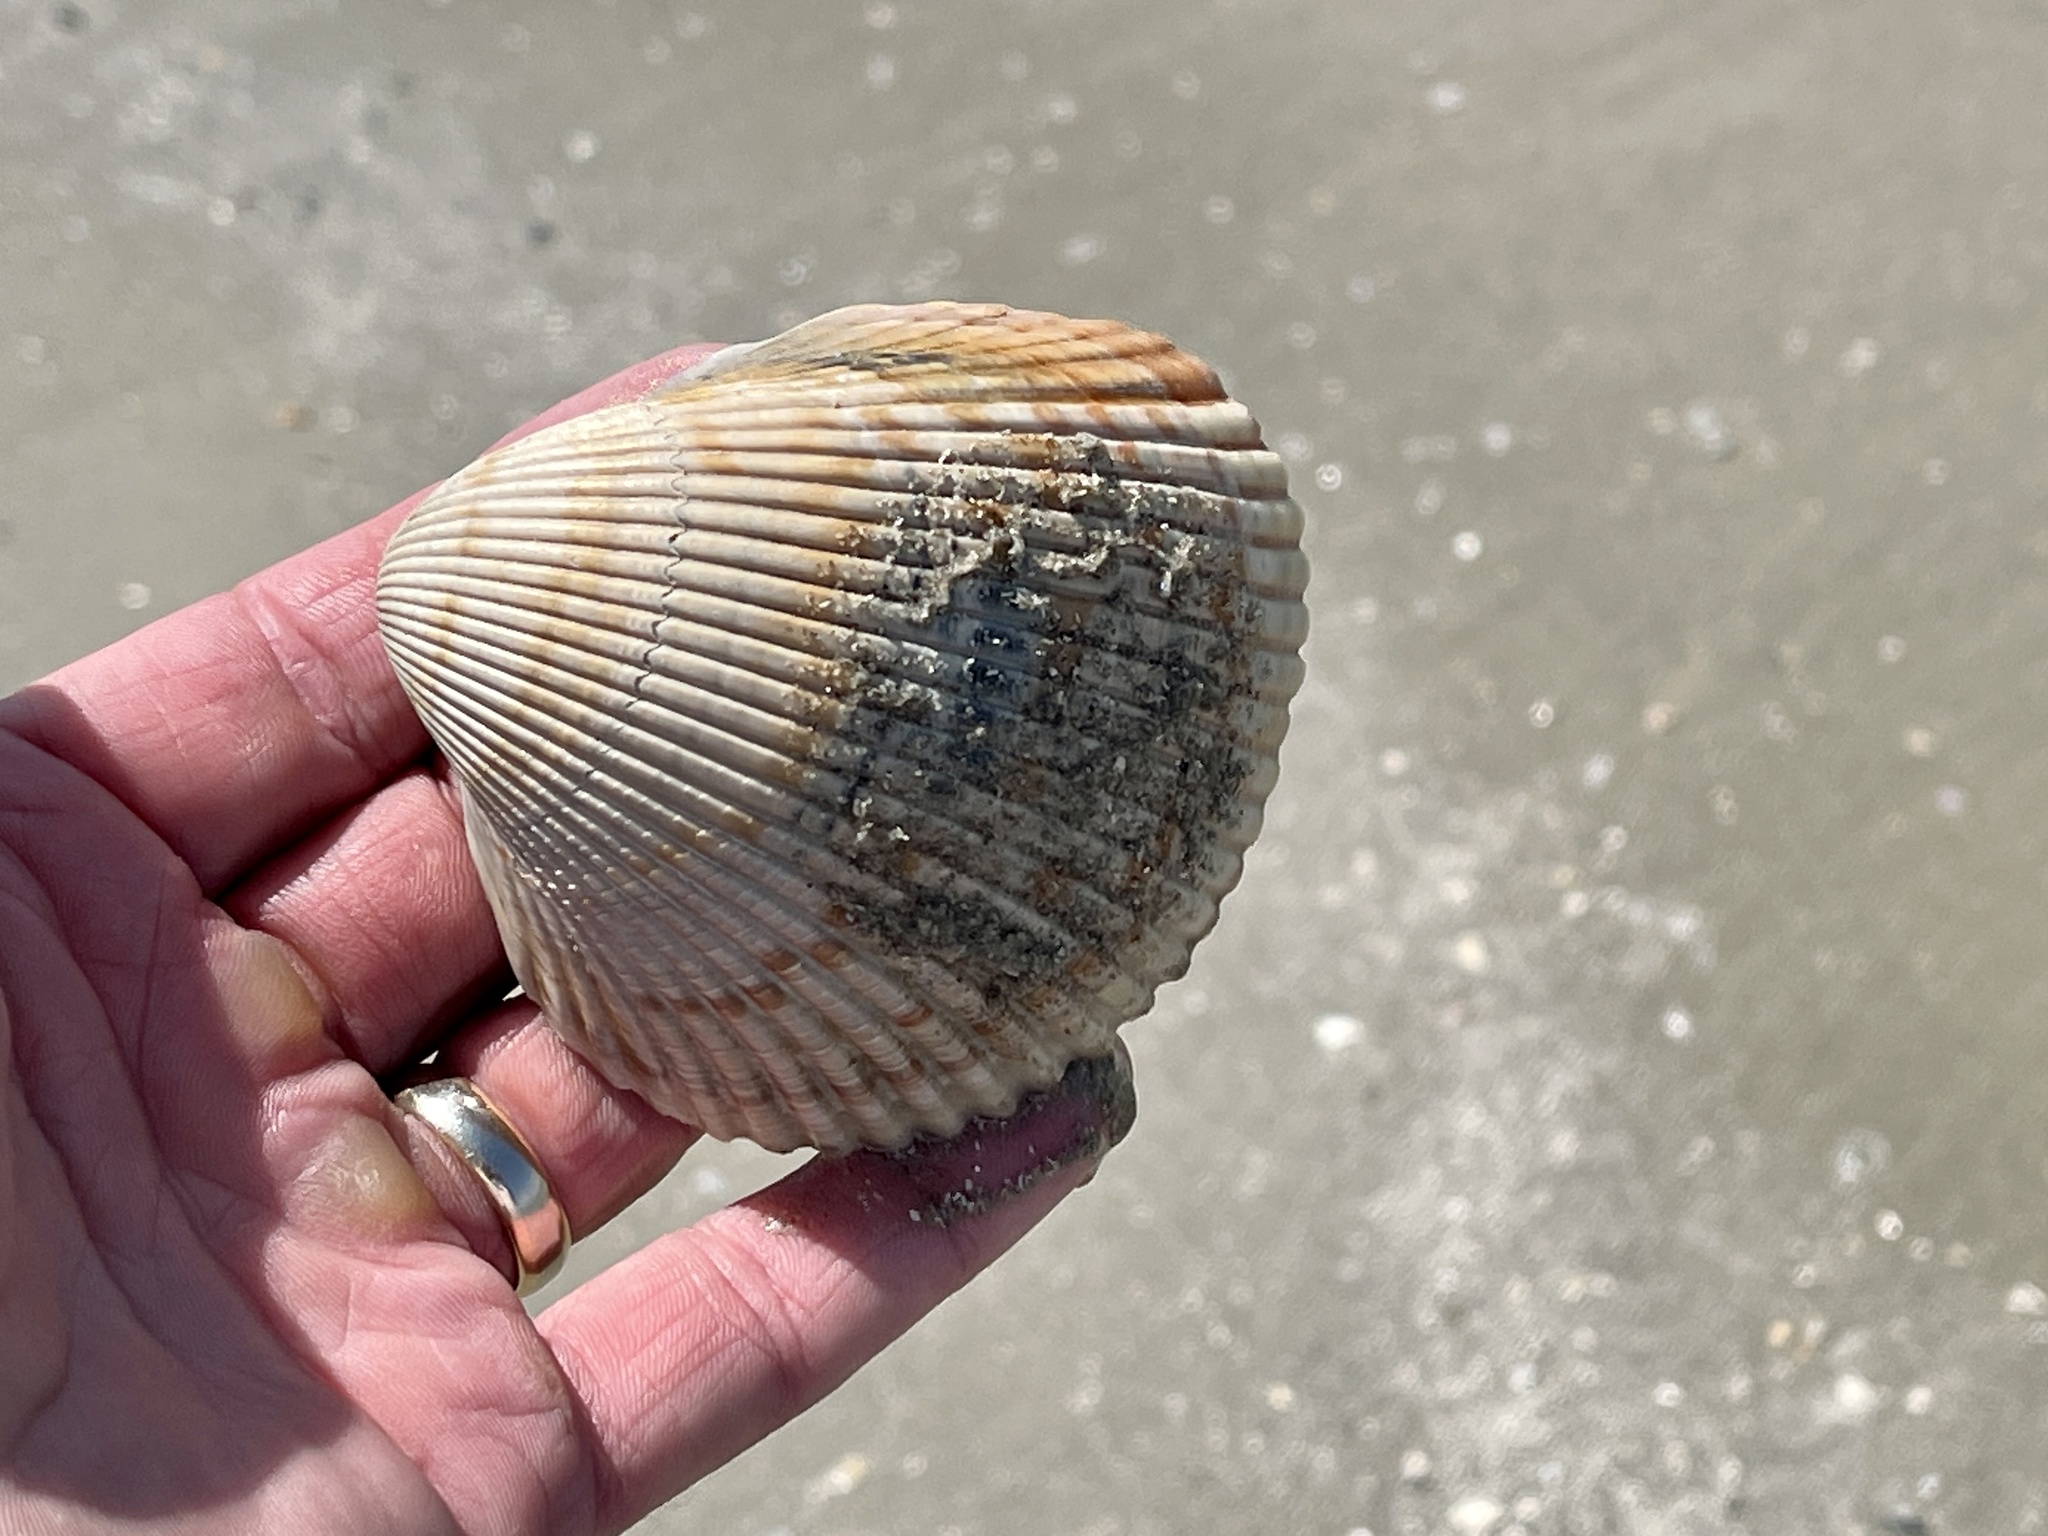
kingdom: Animalia
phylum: Mollusca
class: Bivalvia
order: Cardiida
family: Cardiidae
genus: Dinocardium
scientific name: Dinocardium robustum
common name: Atlantic giant cockle
